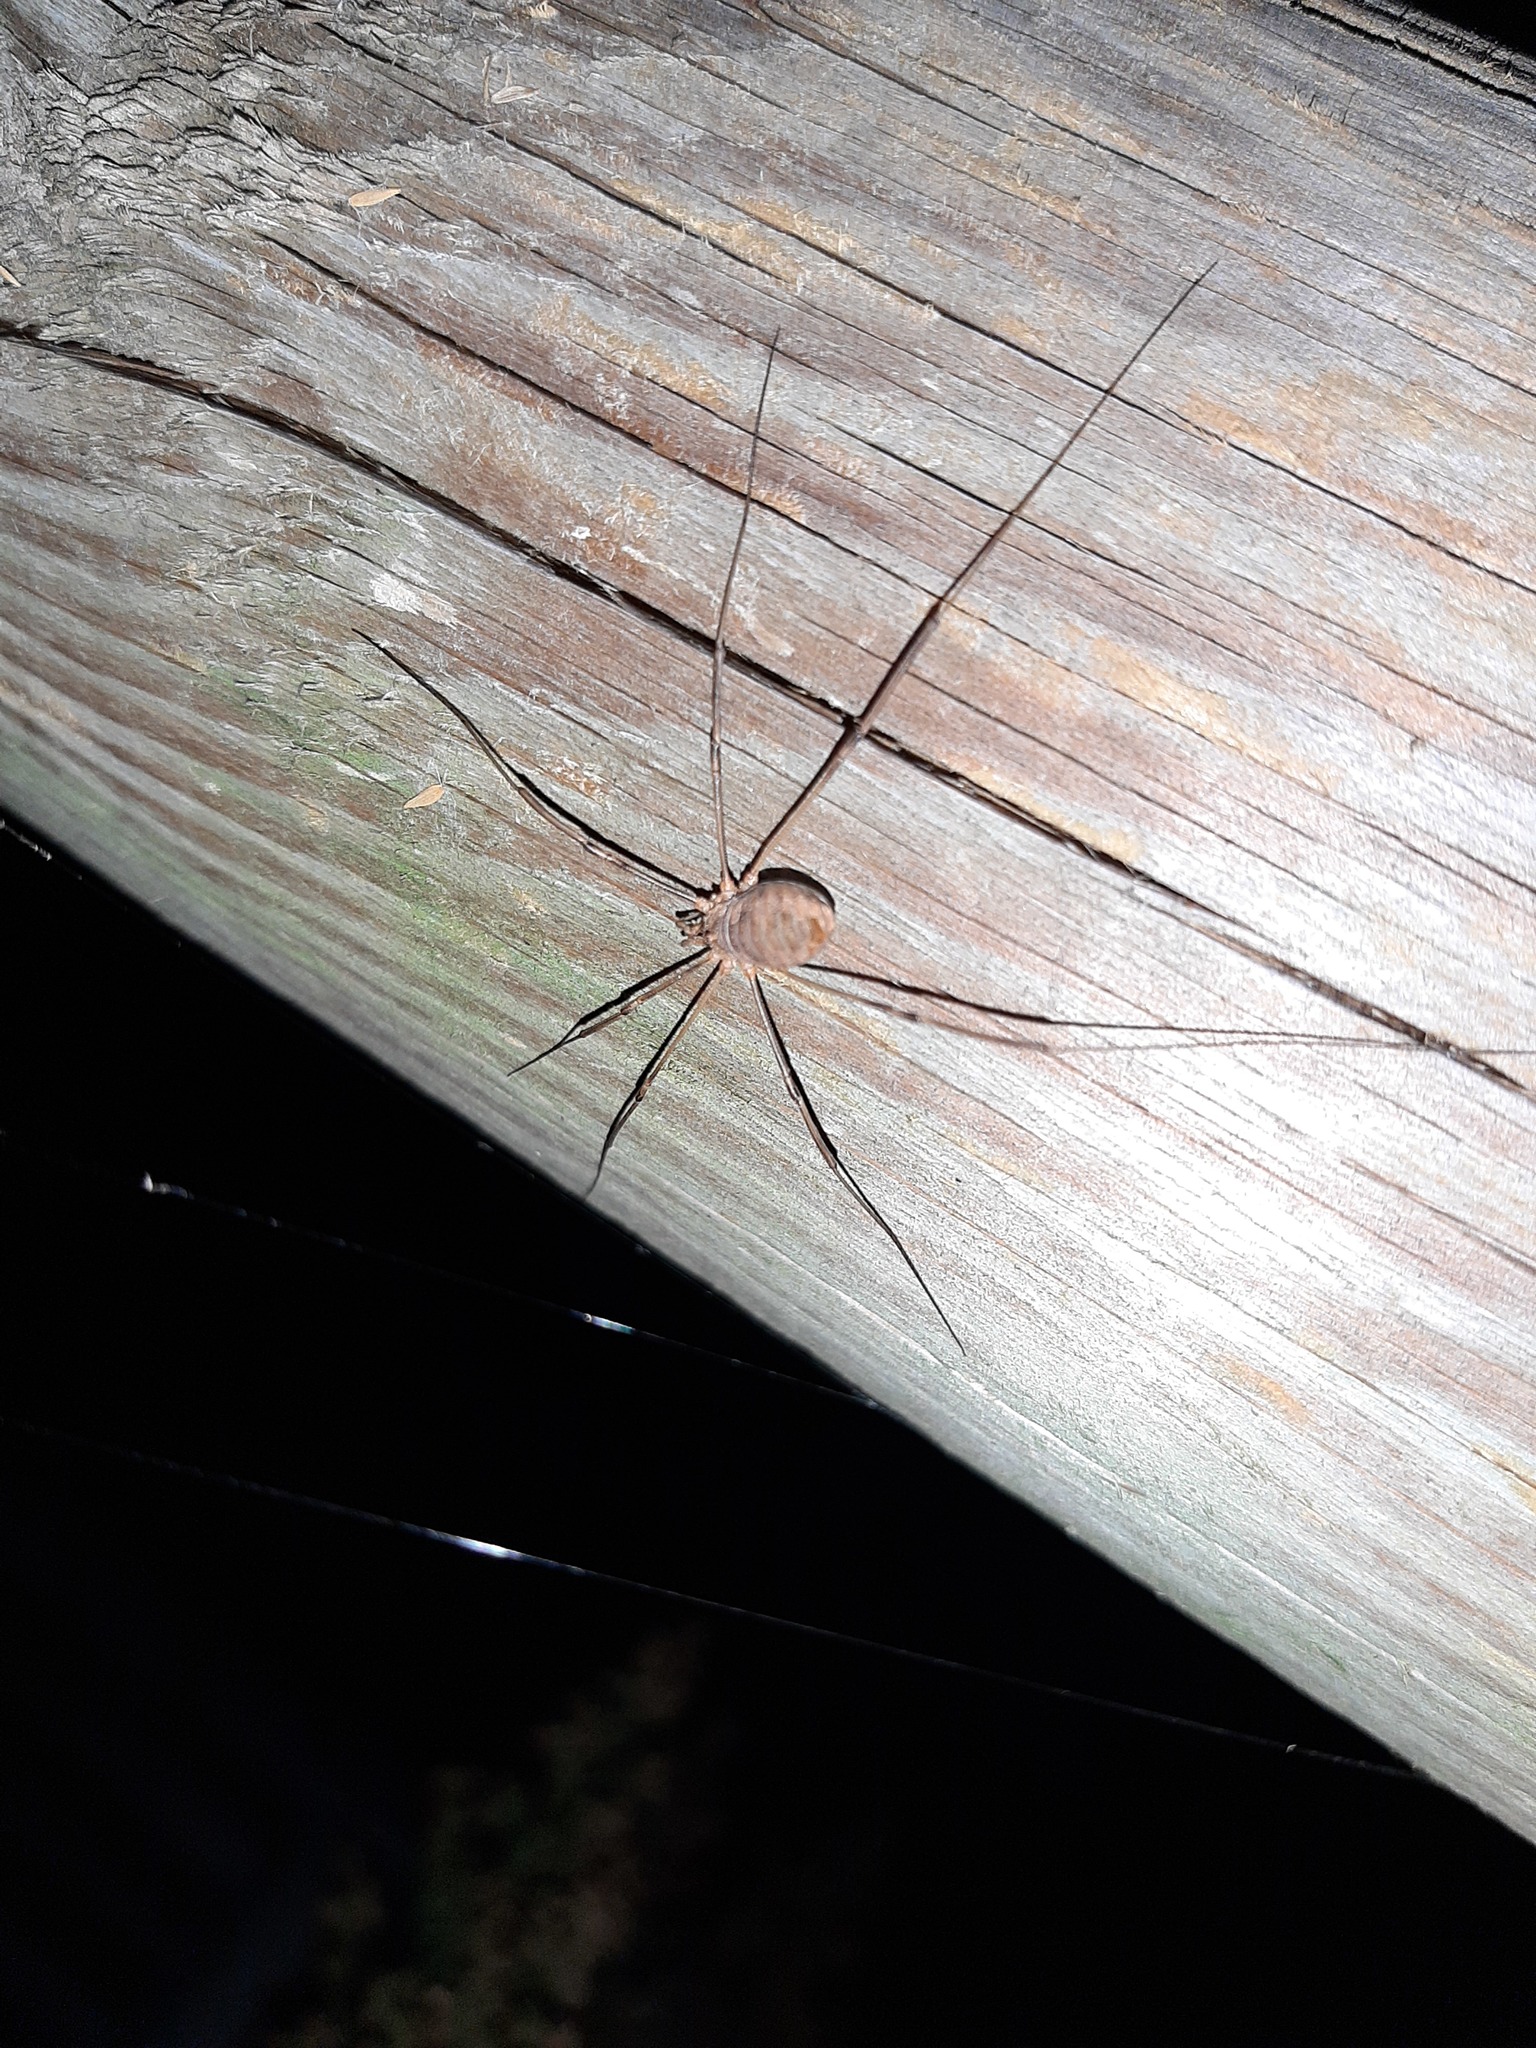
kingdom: Animalia
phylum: Arthropoda
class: Arachnida
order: Opiliones
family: Phalangiidae
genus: Phalangium
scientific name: Phalangium opilio
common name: Daddy longleg
